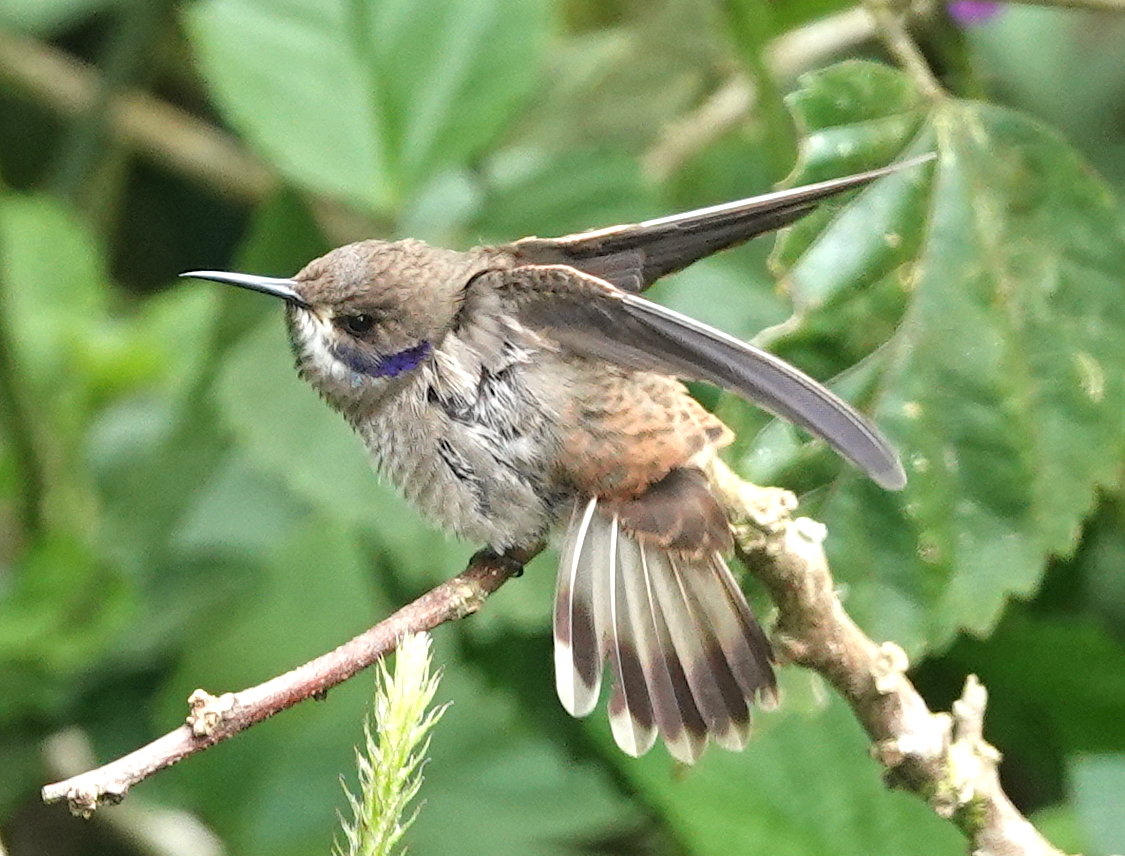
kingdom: Animalia
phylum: Chordata
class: Aves
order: Apodiformes
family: Trochilidae
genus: Colibri
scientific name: Colibri delphinae
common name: Brown violetear
